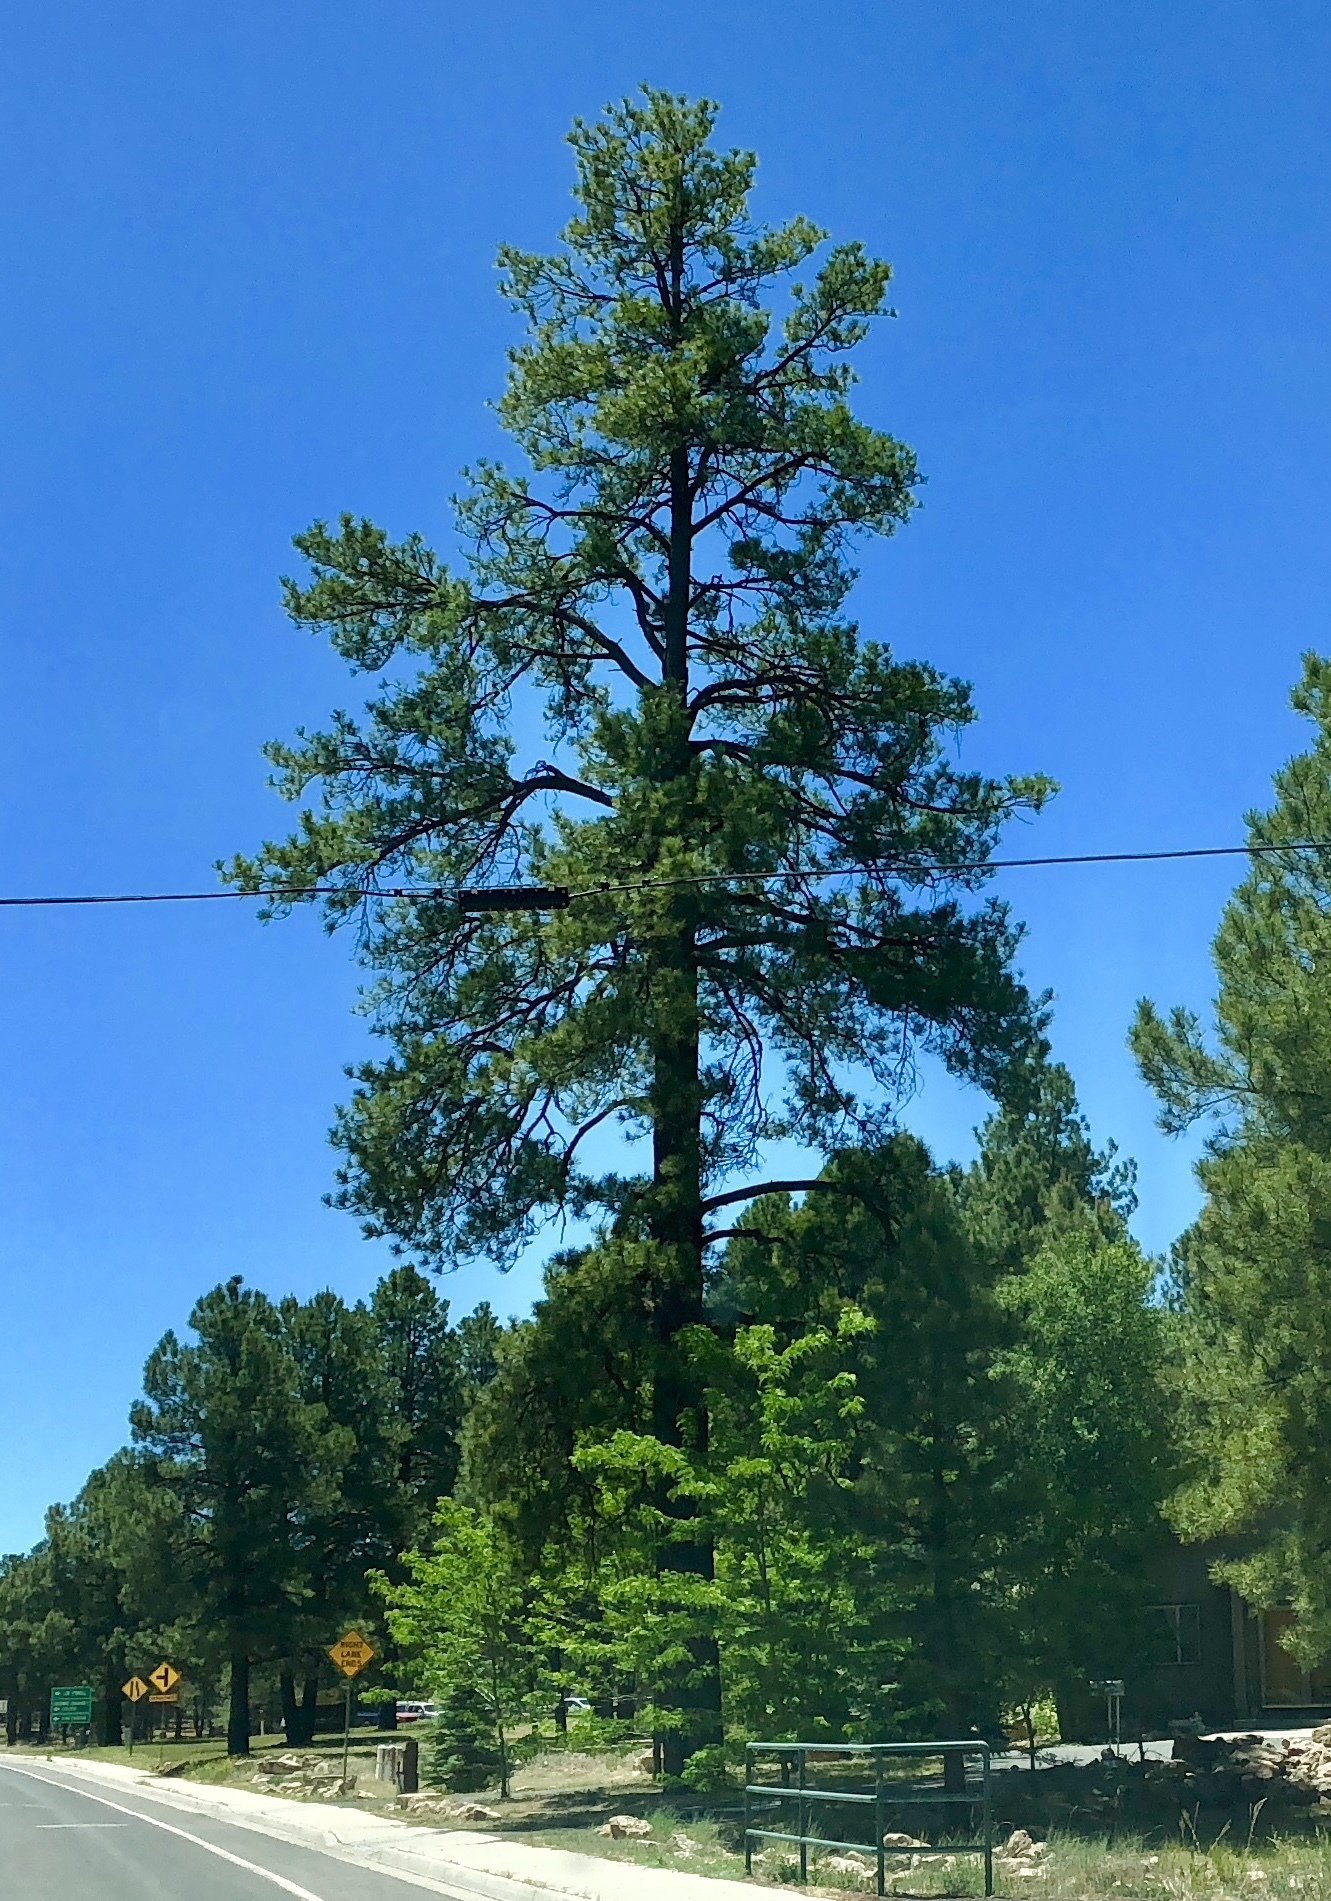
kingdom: Plantae
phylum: Tracheophyta
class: Pinopsida
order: Pinales
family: Pinaceae
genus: Pinus
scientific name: Pinus ponderosa
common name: Western yellow-pine
